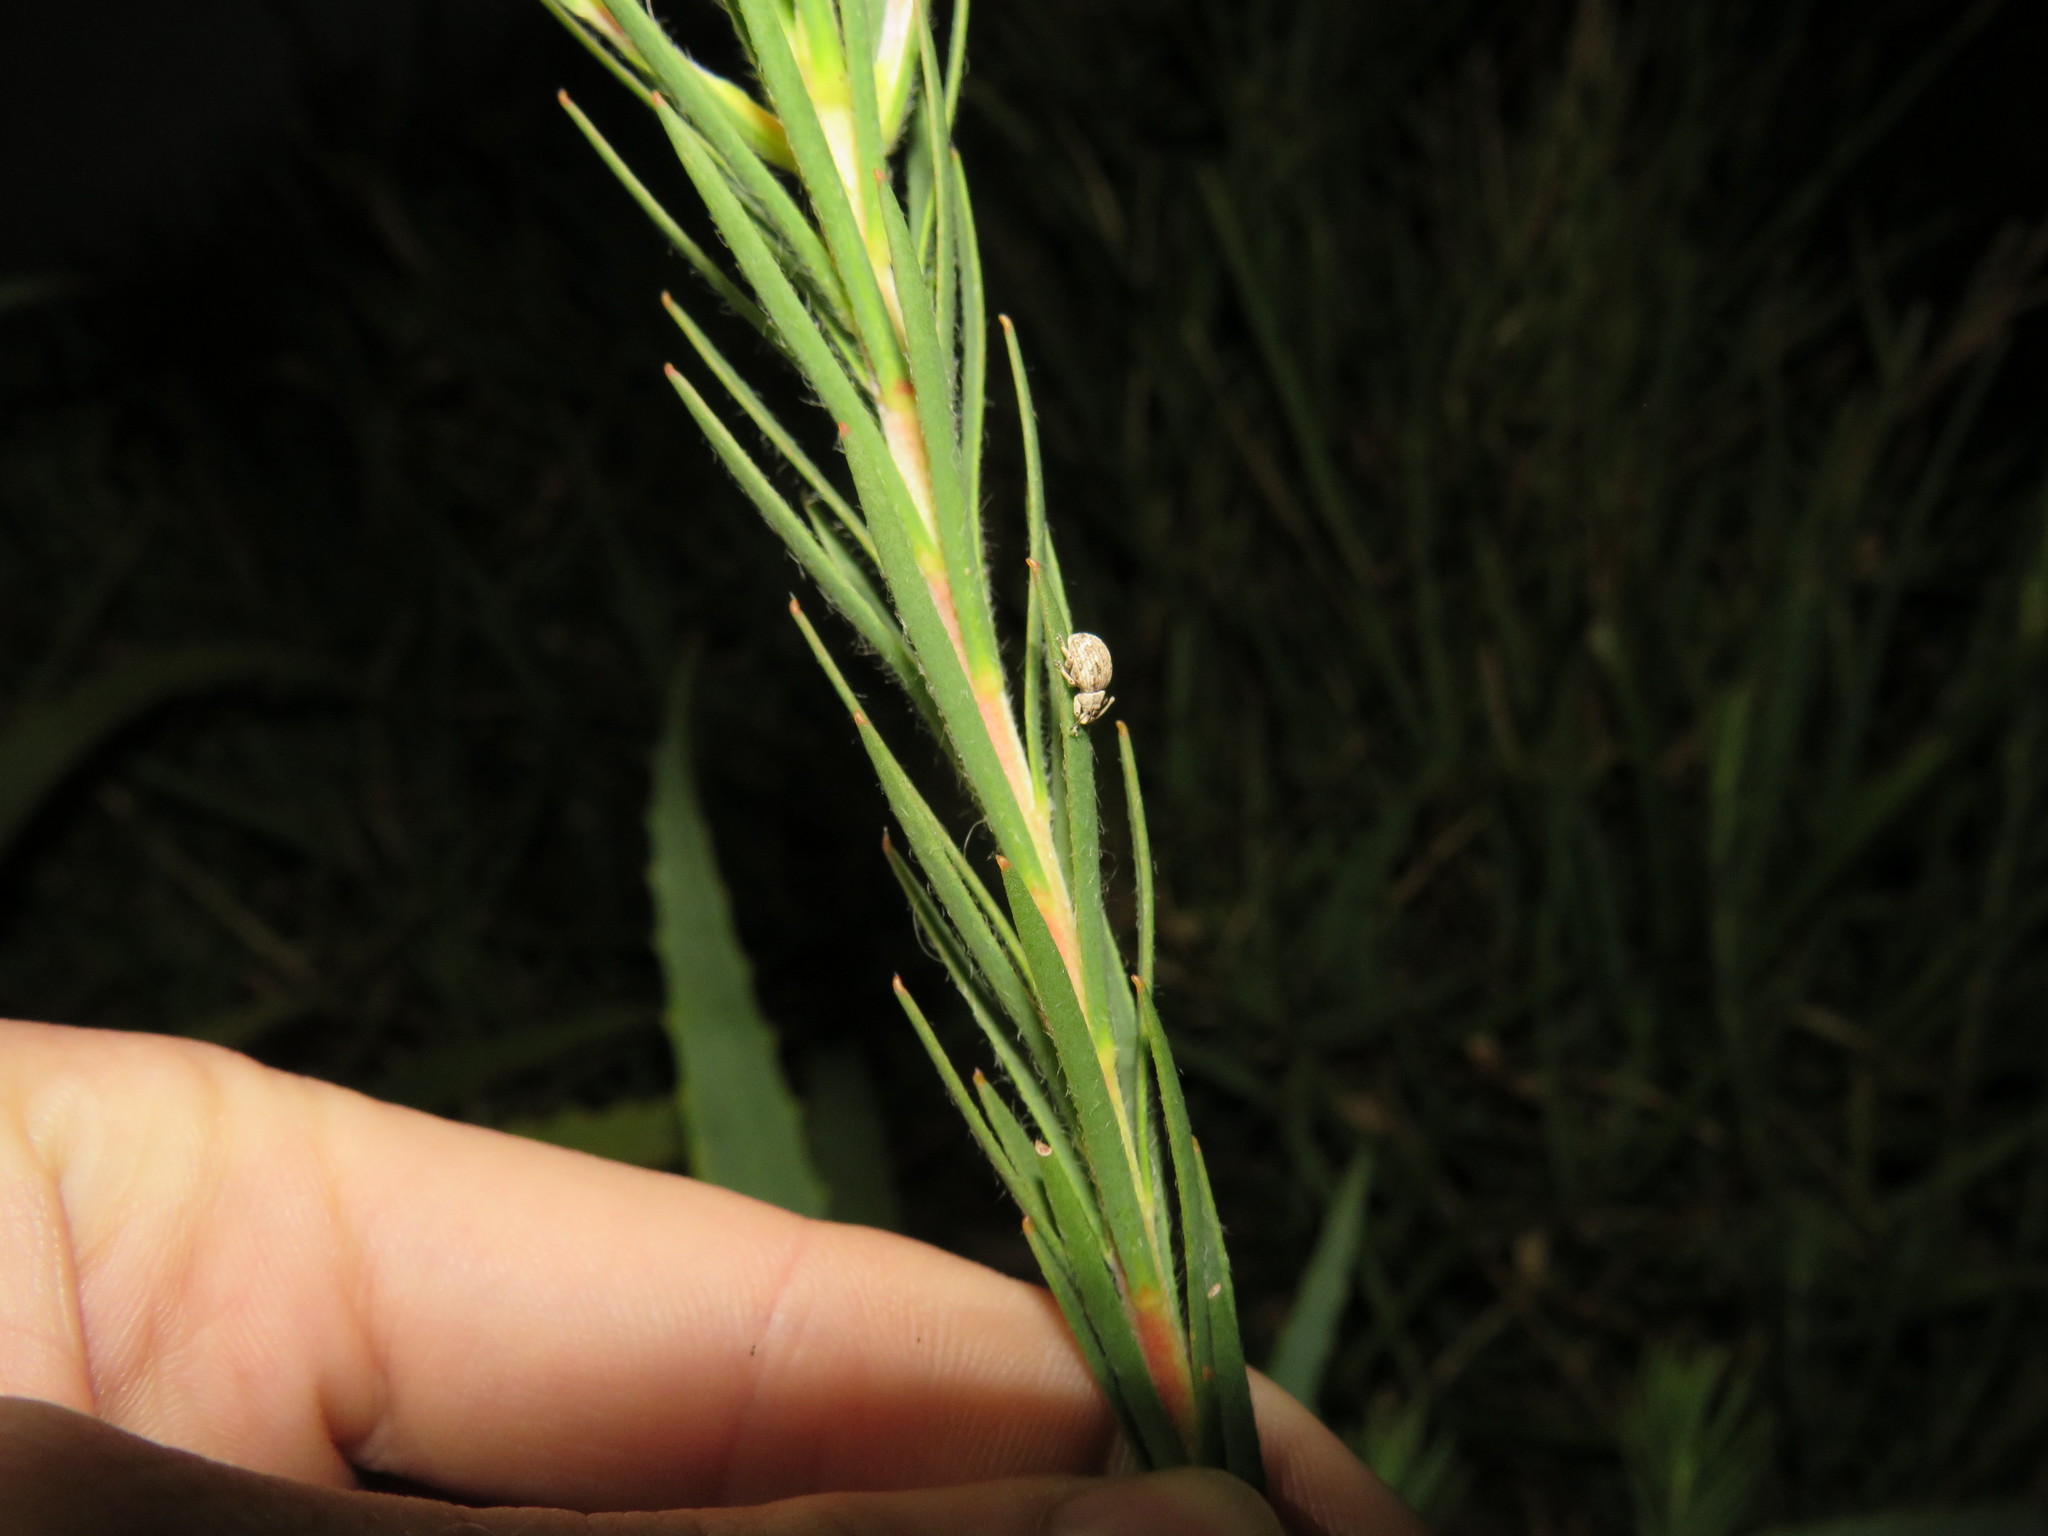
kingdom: Animalia
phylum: Arthropoda
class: Insecta
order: Coleoptera
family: Curculionidae
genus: Ellimenistes
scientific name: Ellimenistes laesicollis
